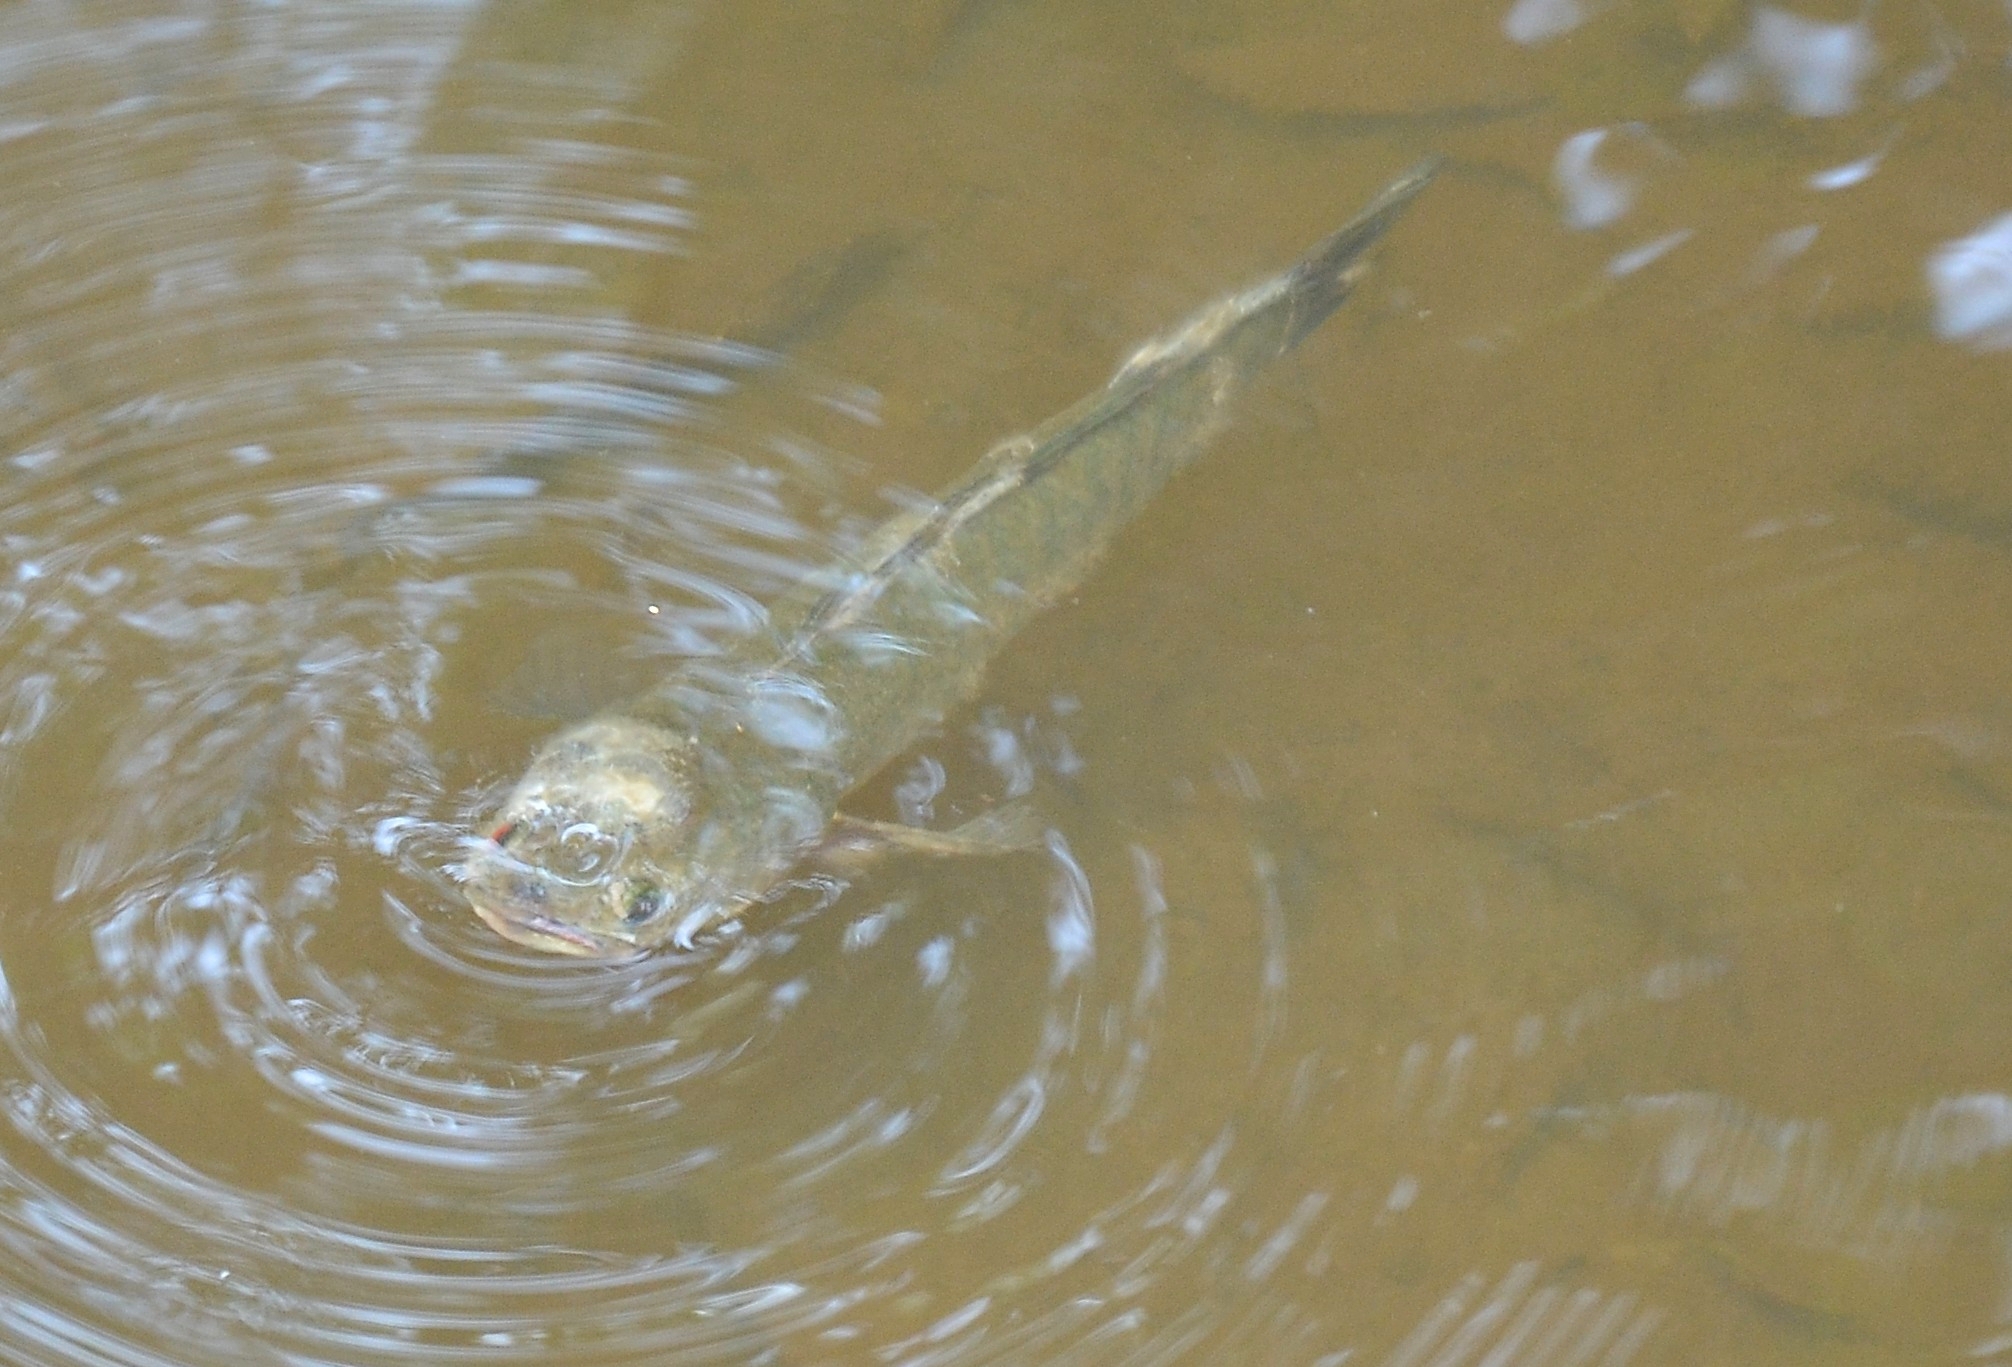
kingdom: Animalia
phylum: Chordata
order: Perciformes
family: Channidae
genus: Channa
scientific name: Channa striata
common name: Striped snakehead
